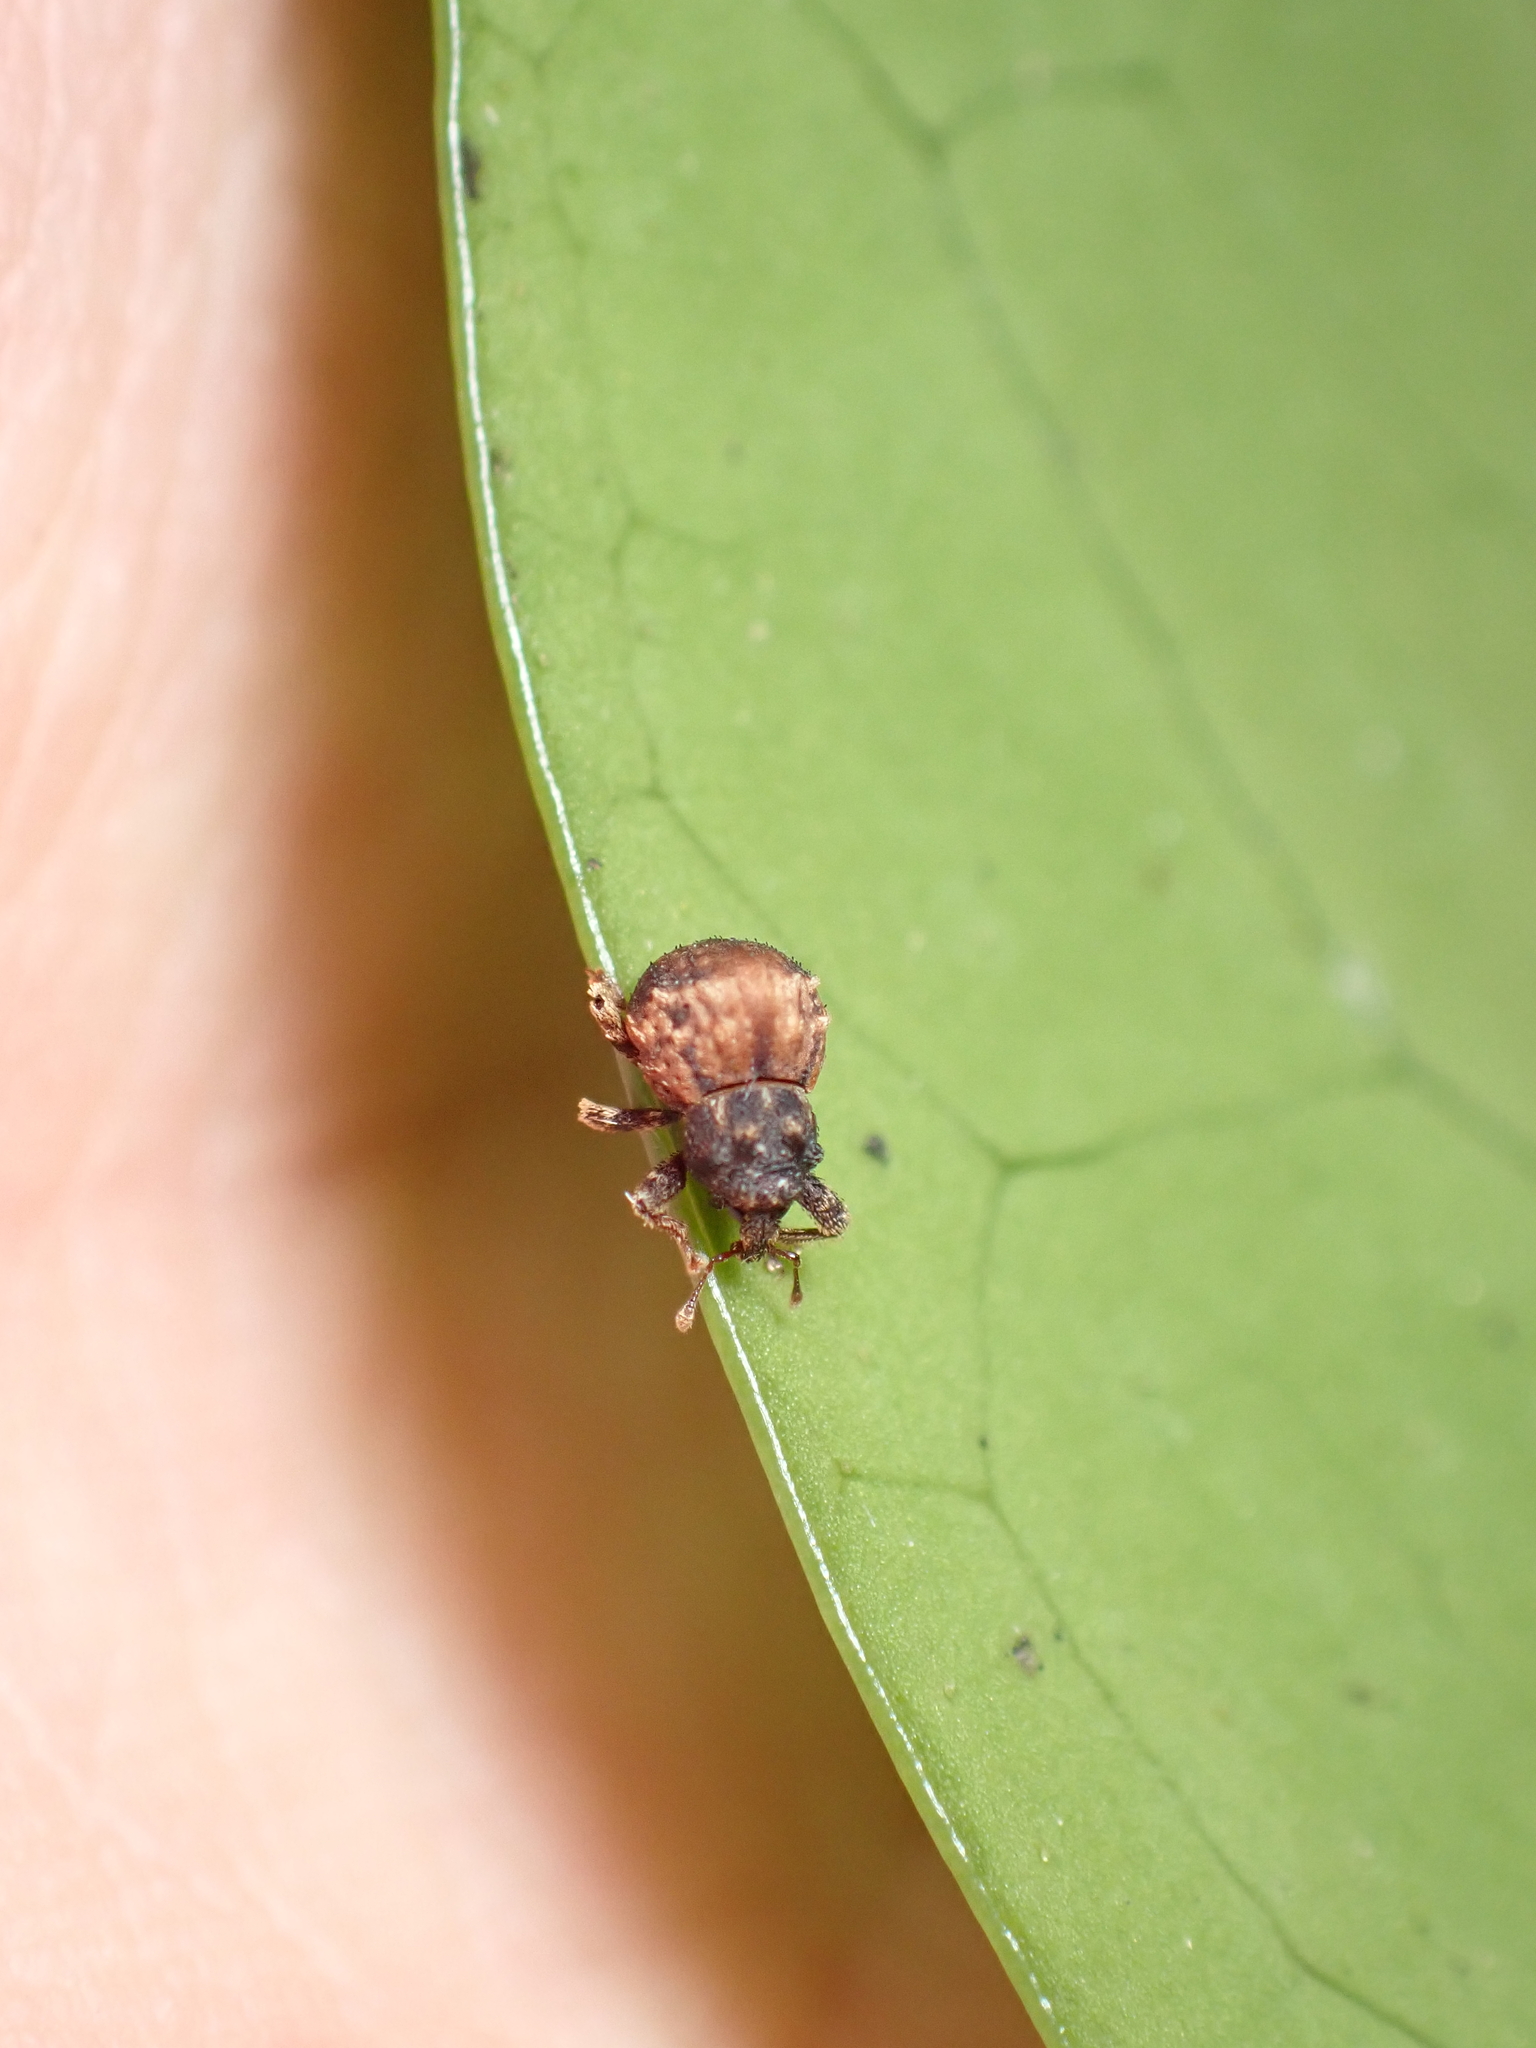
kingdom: Animalia
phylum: Arthropoda
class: Insecta
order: Coleoptera
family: Curculionidae
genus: Crooktacalles
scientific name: Crooktacalles certus
